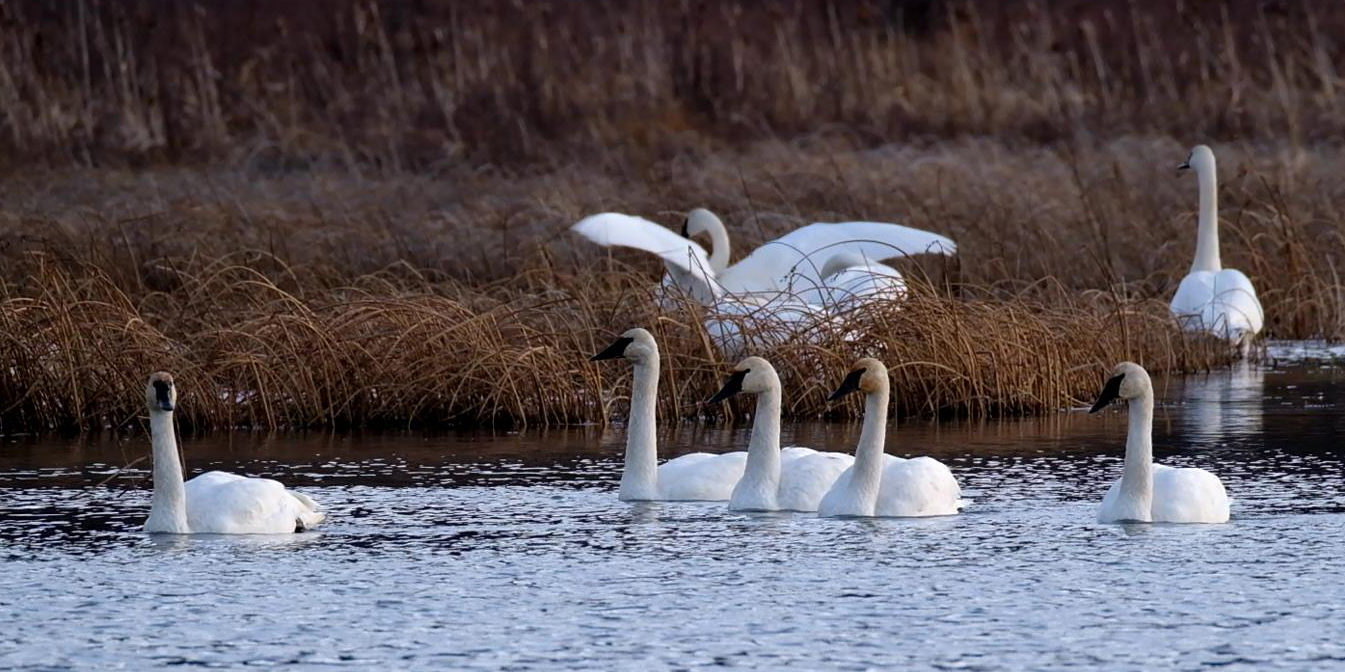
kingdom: Animalia
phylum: Chordata
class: Aves
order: Anseriformes
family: Anatidae
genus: Cygnus
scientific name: Cygnus buccinator
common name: Trumpeter swan
